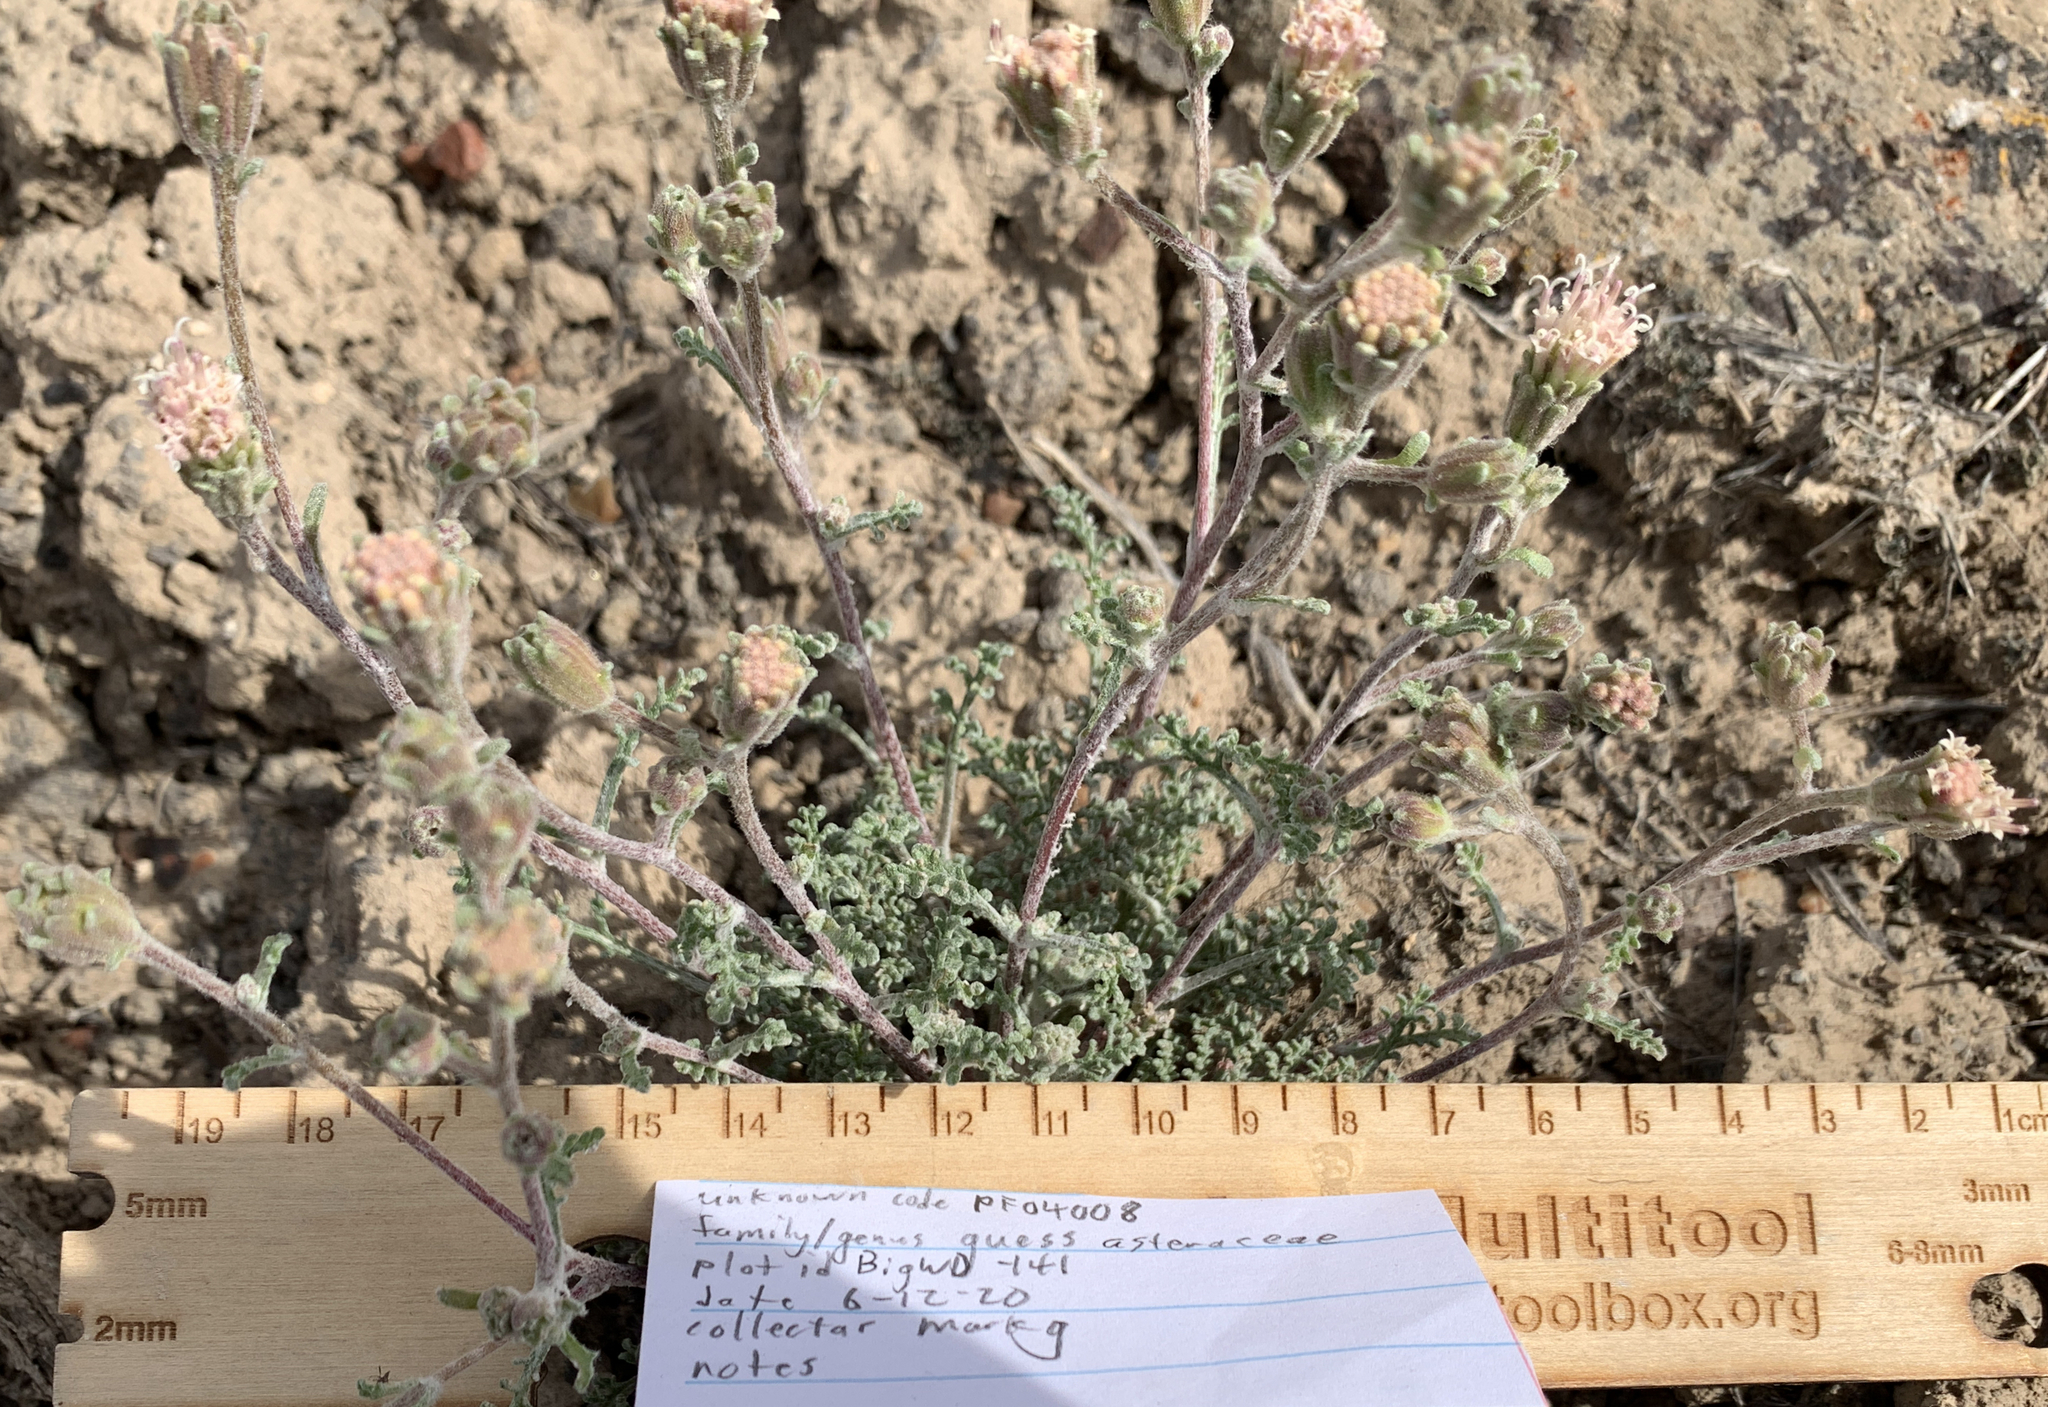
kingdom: Plantae
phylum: Tracheophyta
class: Magnoliopsida
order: Asterales
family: Asteraceae
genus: Chaenactis
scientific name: Chaenactis douglasii
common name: Hoary pincushion
